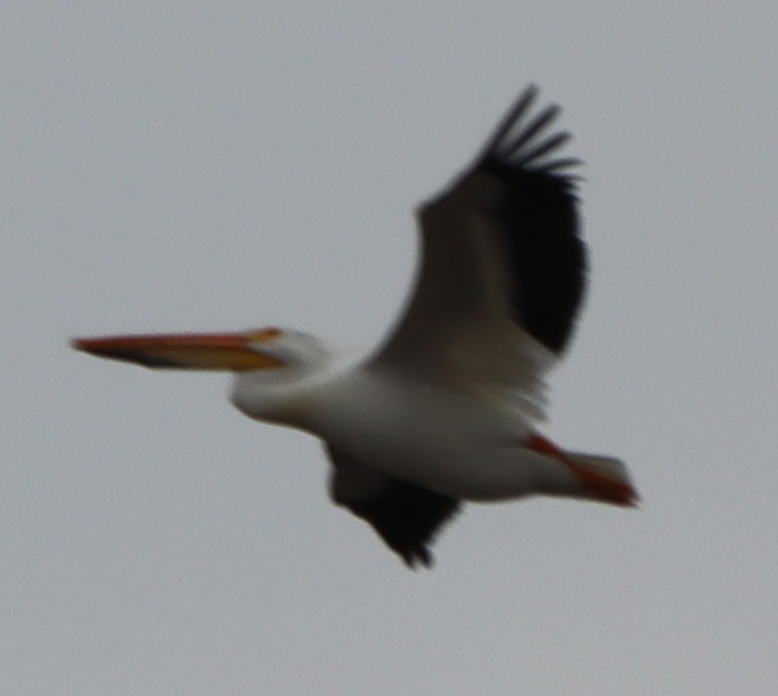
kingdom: Animalia
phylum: Chordata
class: Aves
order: Pelecaniformes
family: Pelecanidae
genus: Pelecanus
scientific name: Pelecanus erythrorhynchos
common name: American white pelican
